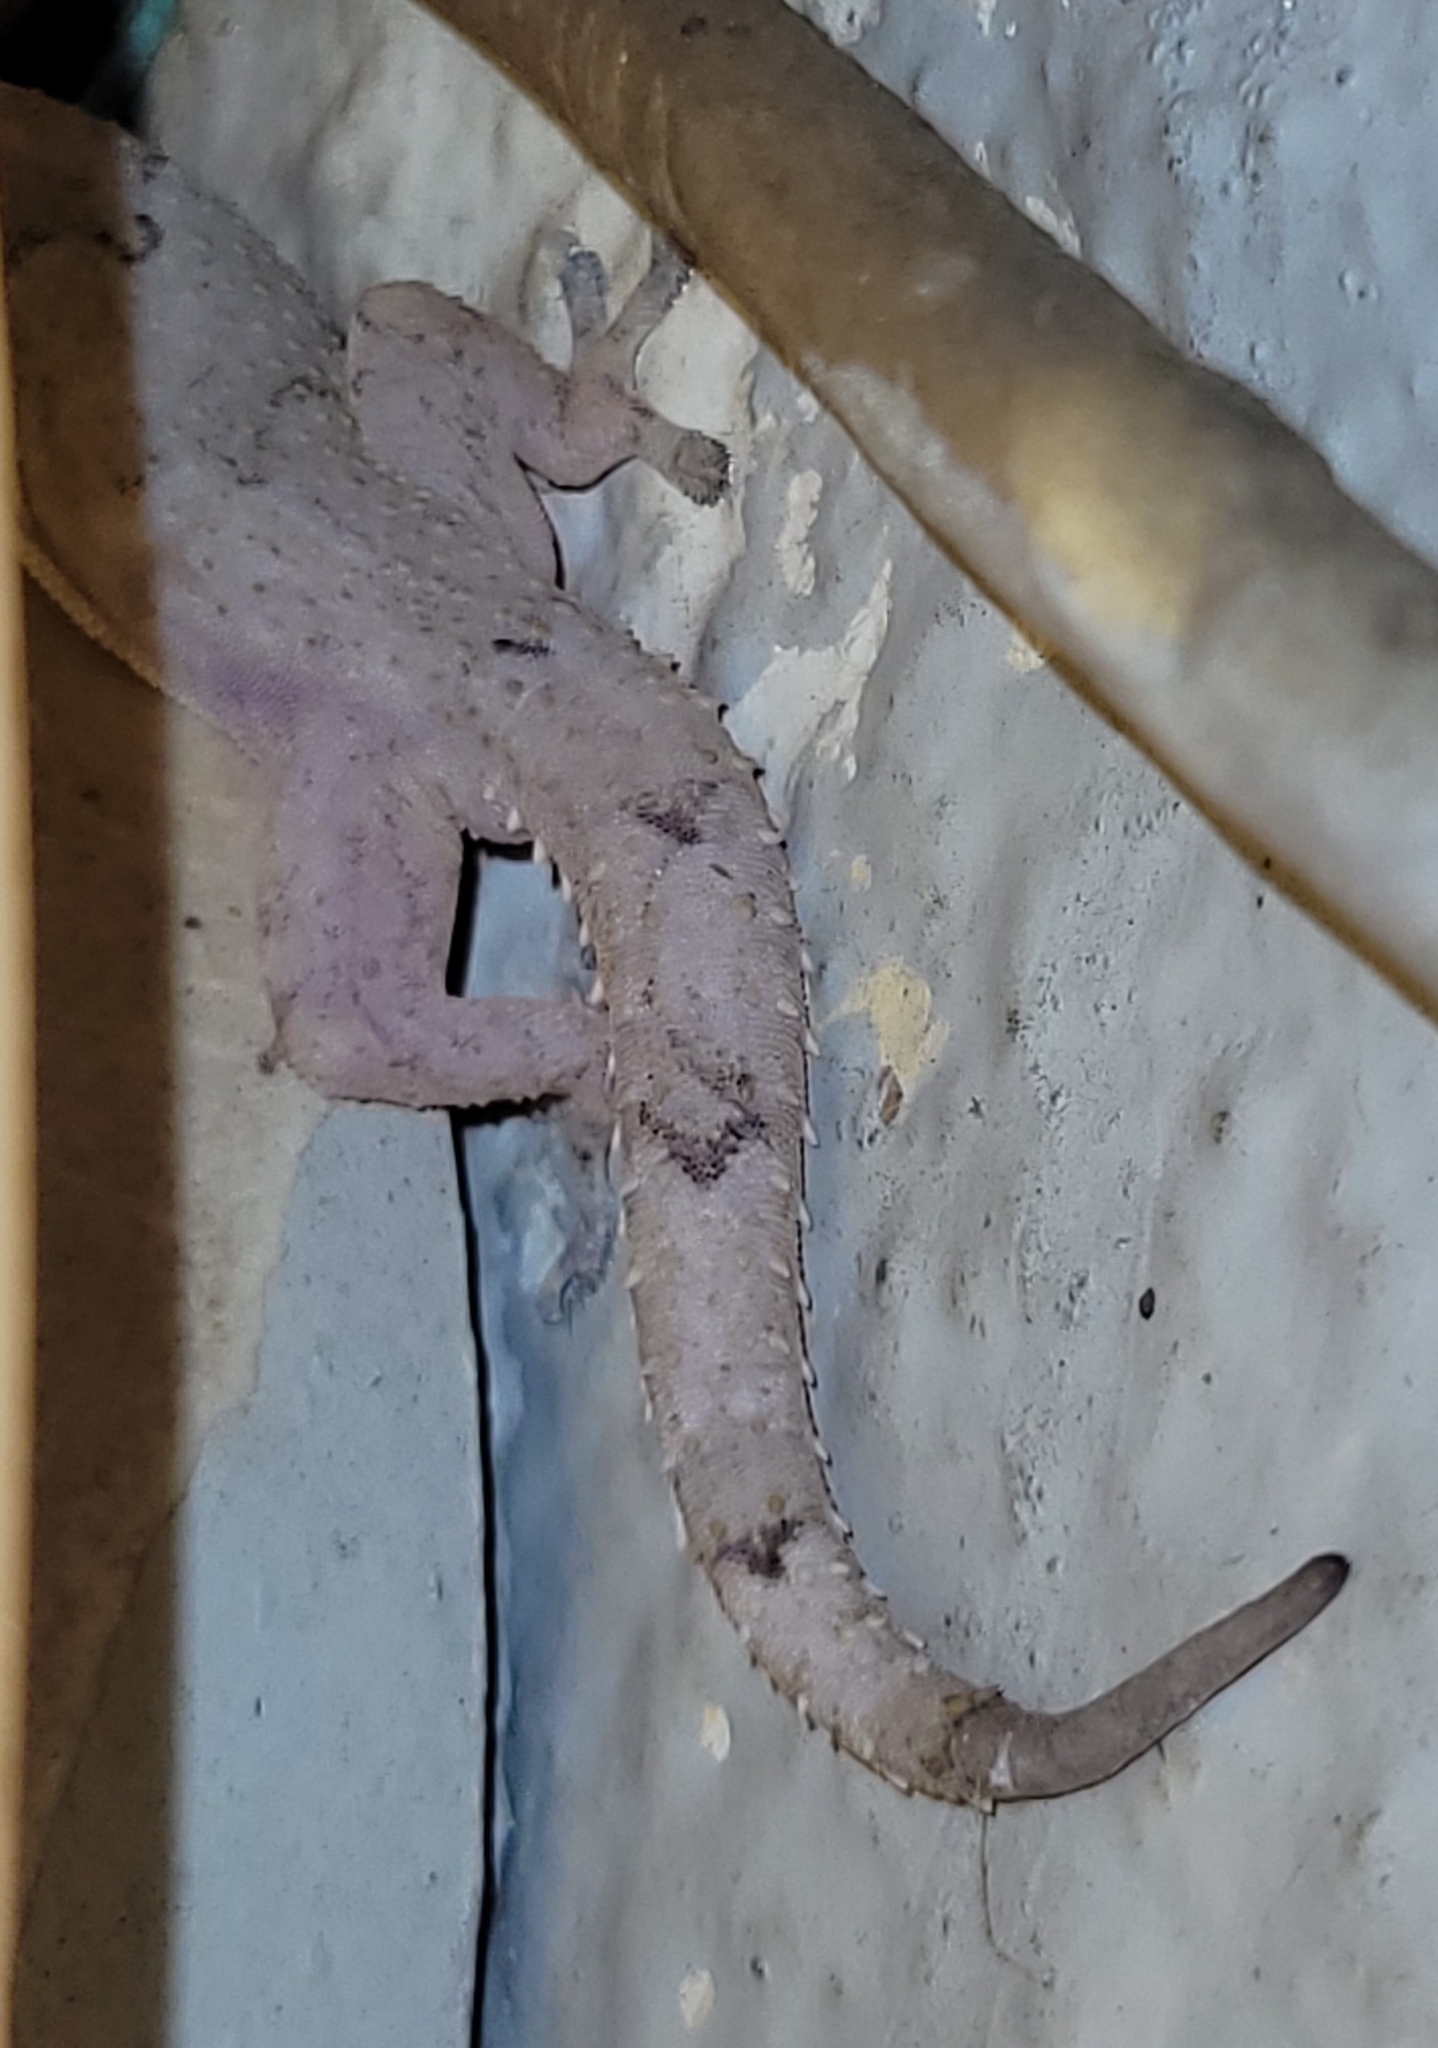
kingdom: Animalia
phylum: Chordata
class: Squamata
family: Gekkonidae
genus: Hemidactylus
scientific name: Hemidactylus mabouia
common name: House gecko
